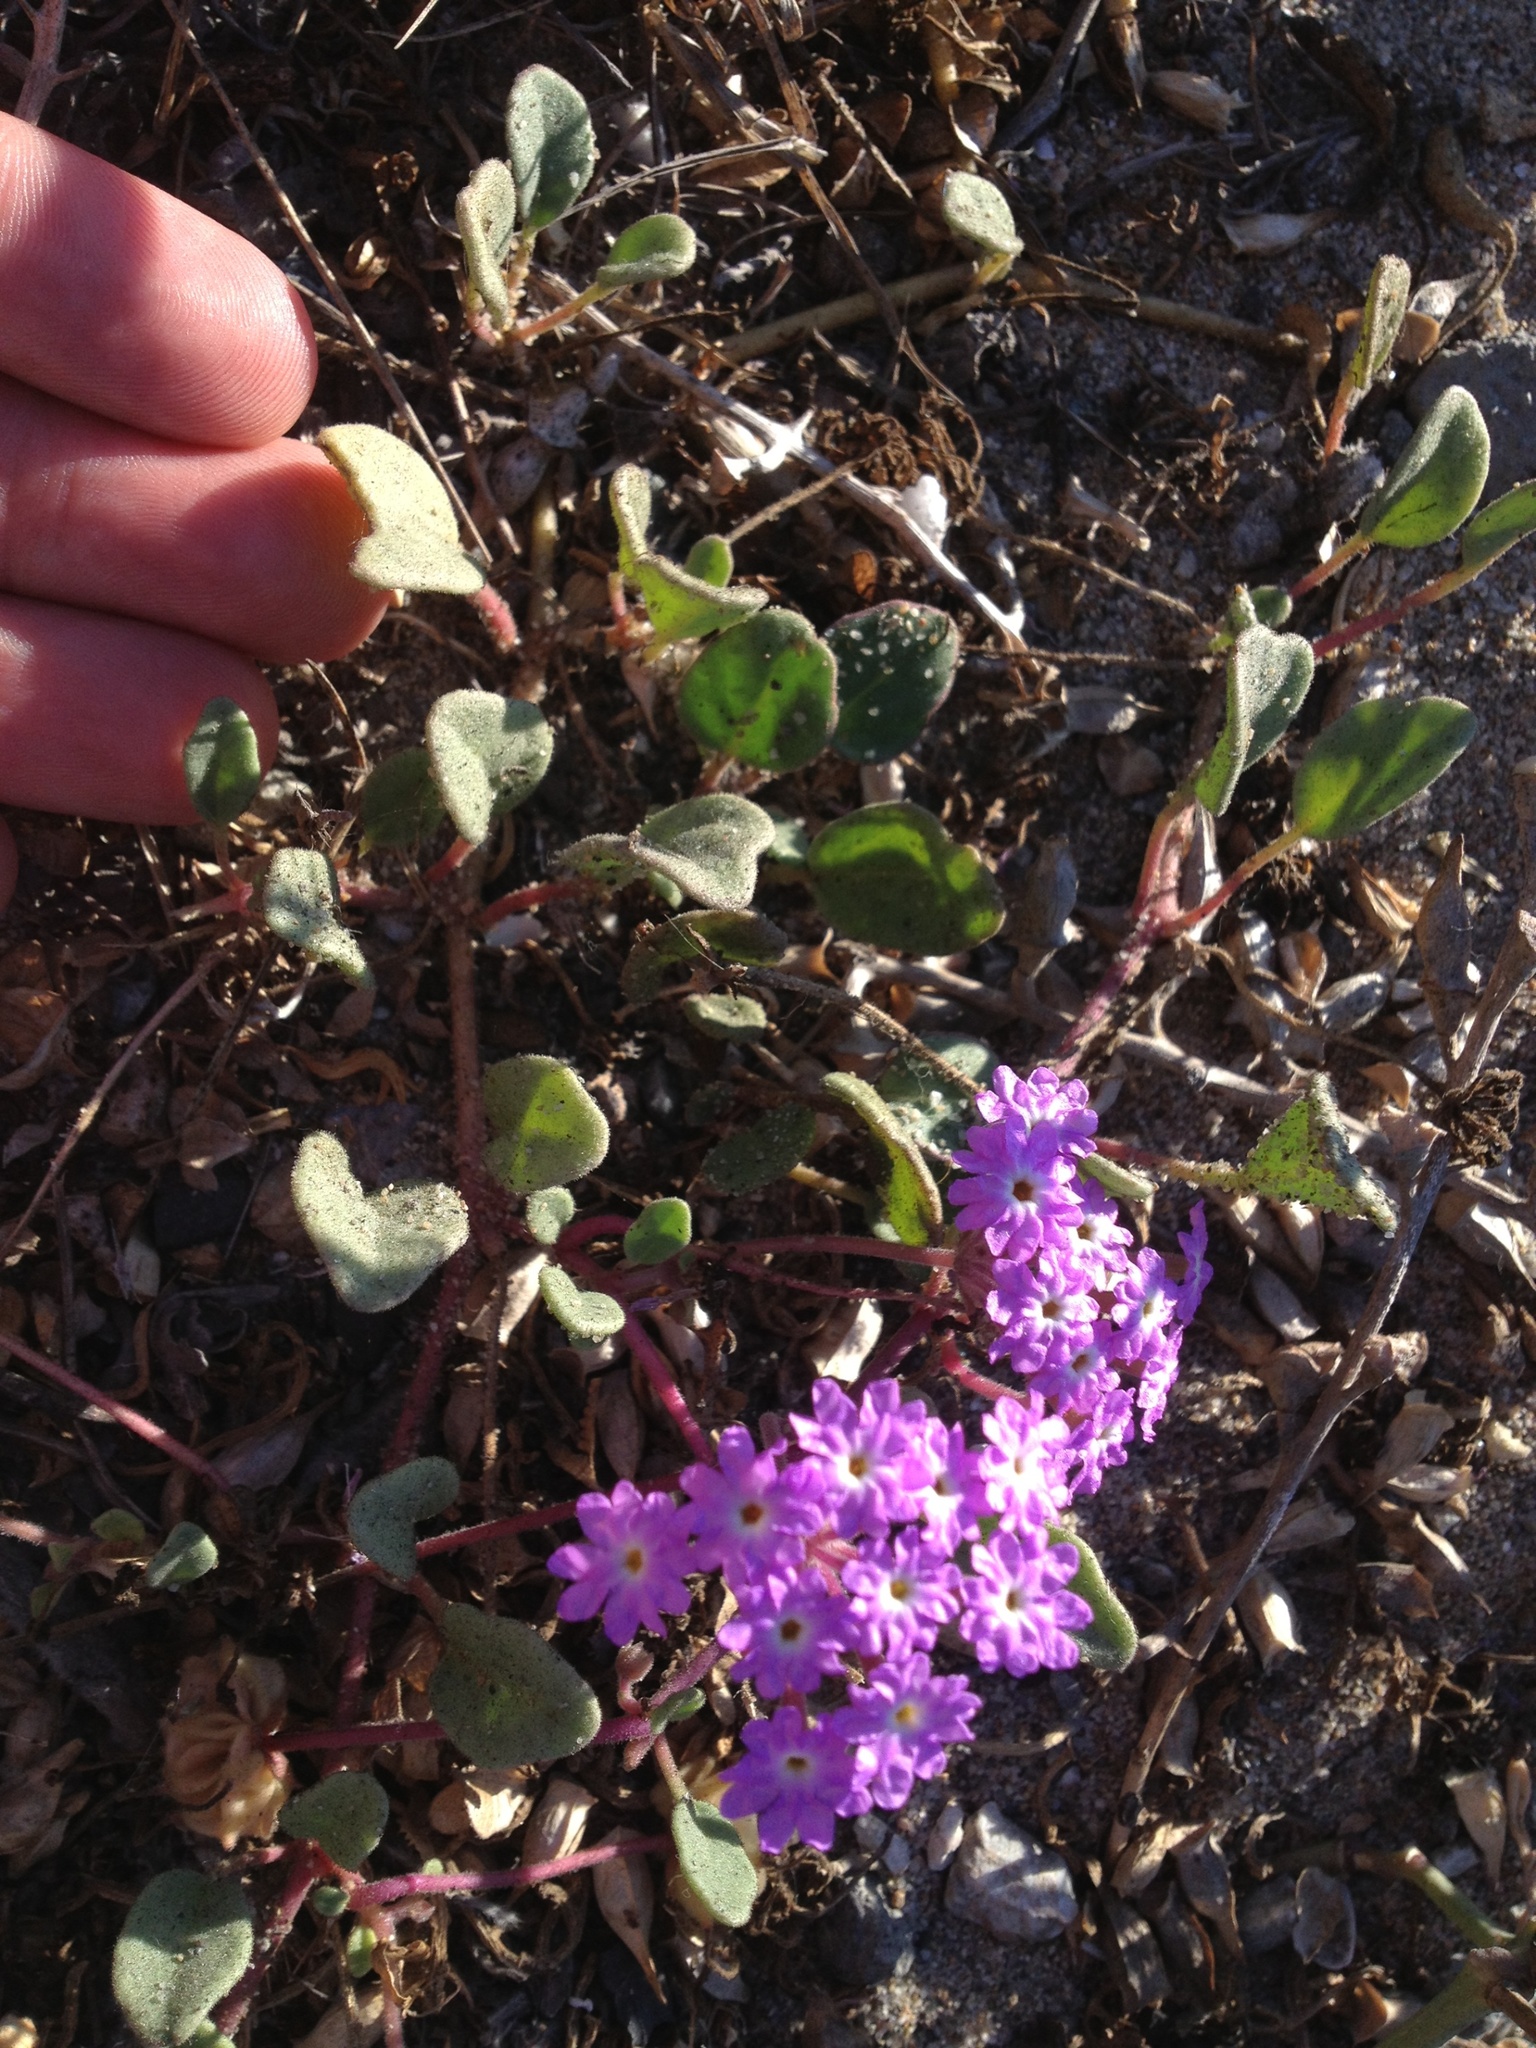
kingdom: Plantae
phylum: Tracheophyta
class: Magnoliopsida
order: Caryophyllales
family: Nyctaginaceae
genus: Abronia
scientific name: Abronia umbellata
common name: Sand-verbena
